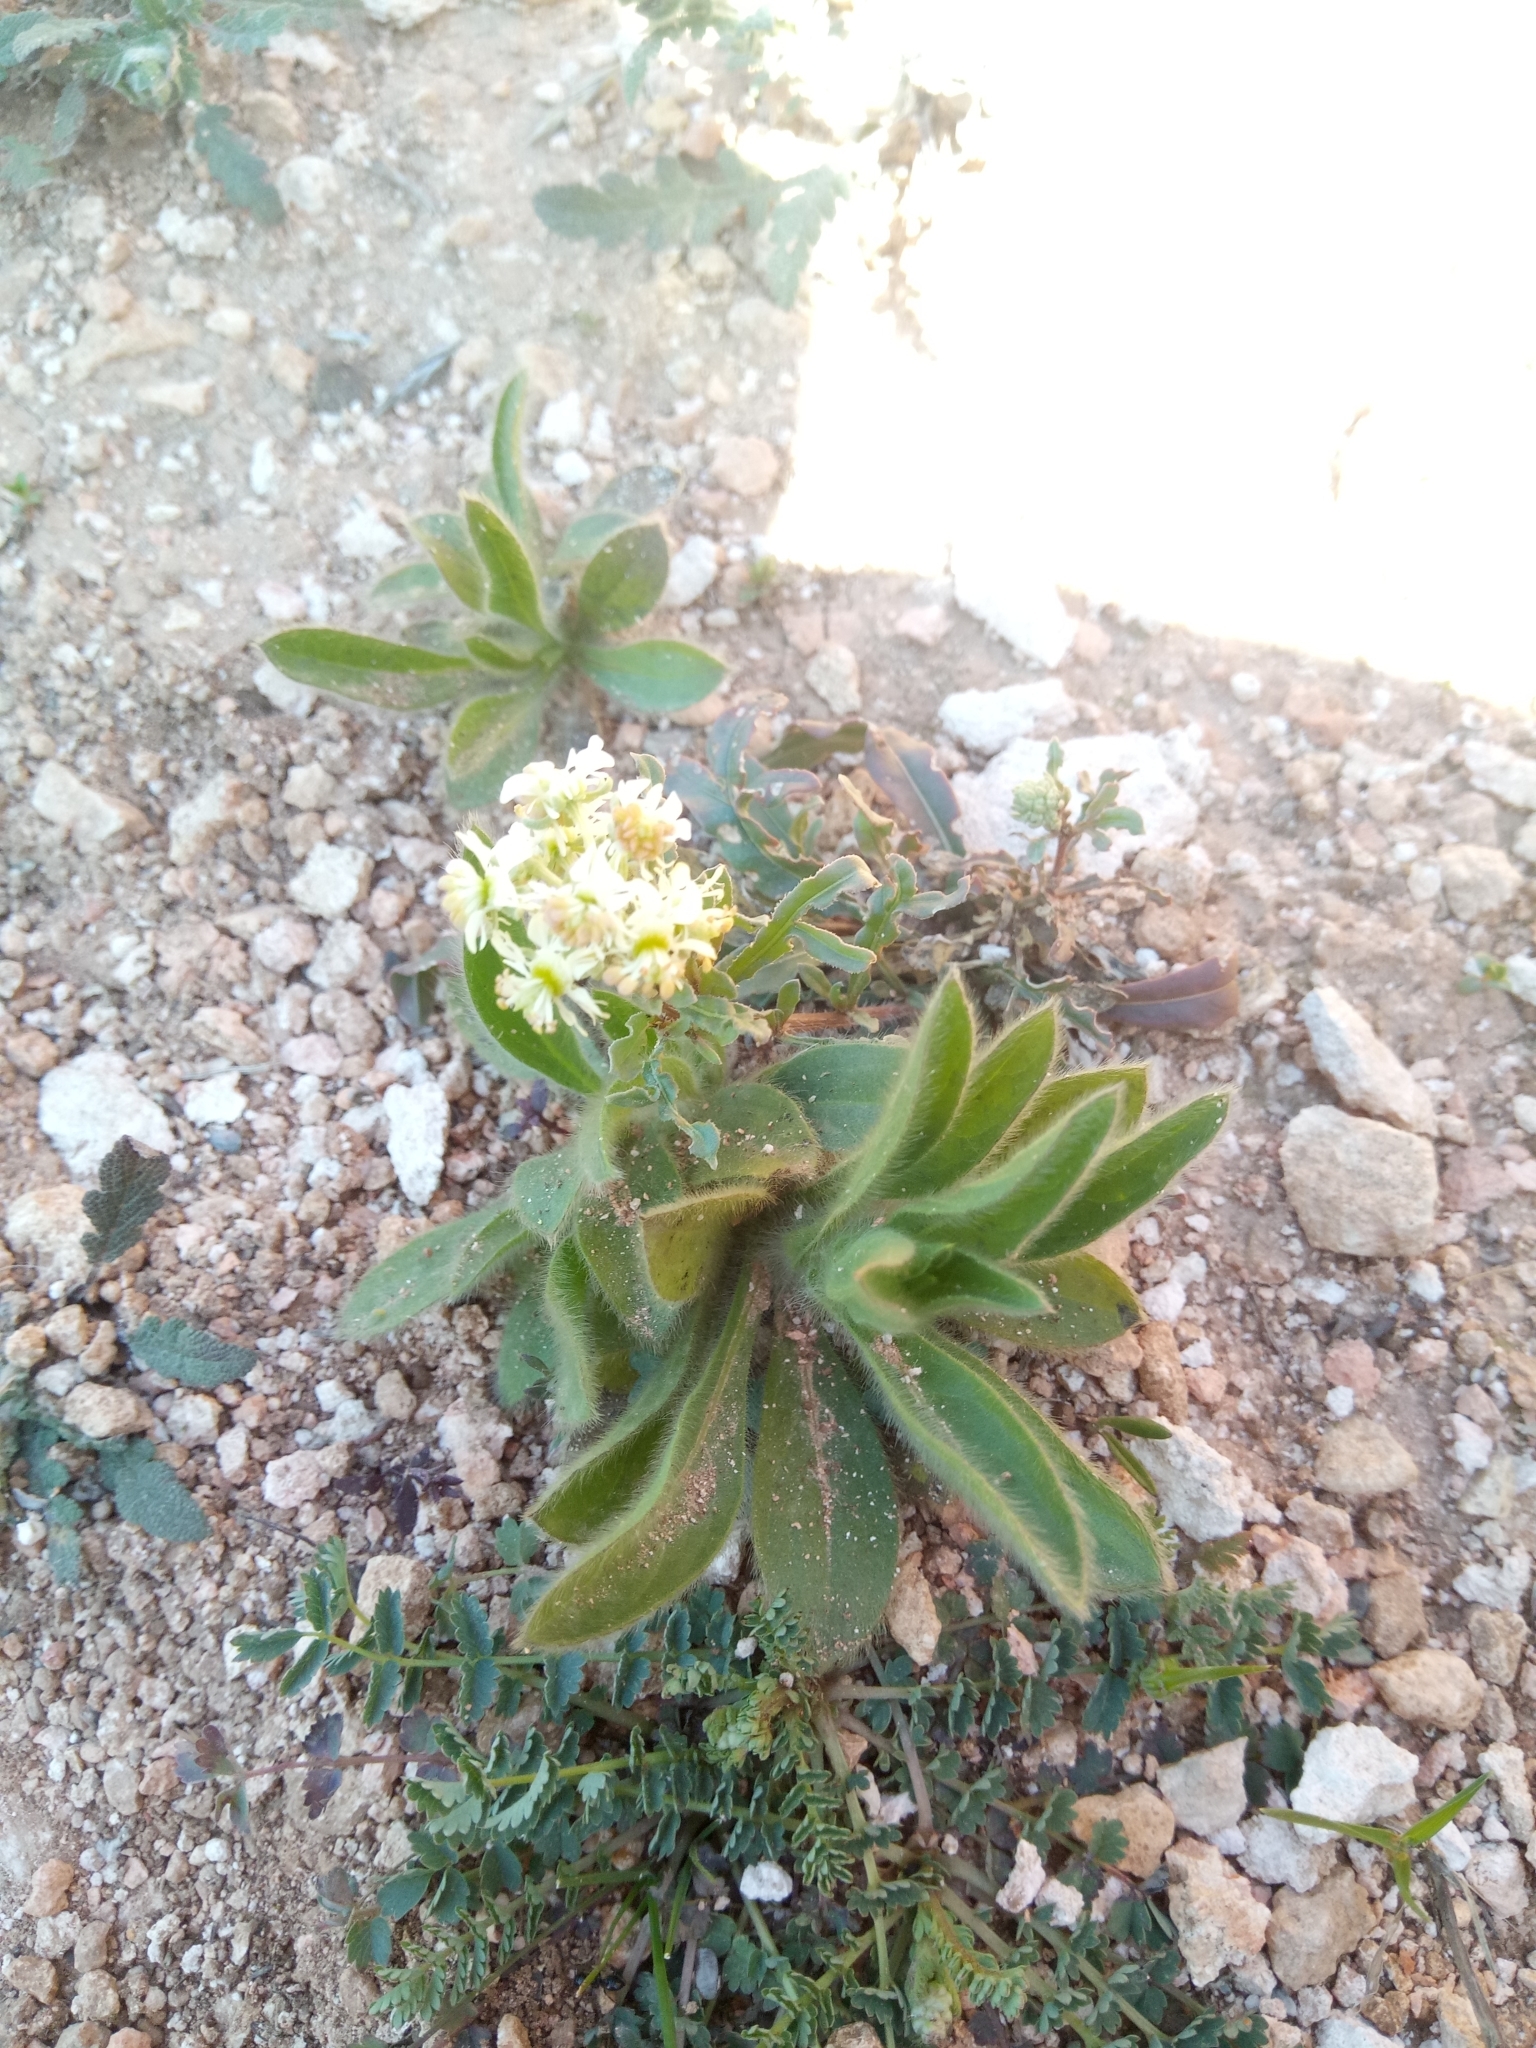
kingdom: Plantae
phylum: Tracheophyta
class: Magnoliopsida
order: Brassicales
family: Resedaceae
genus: Reseda
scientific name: Reseda duriaeana
